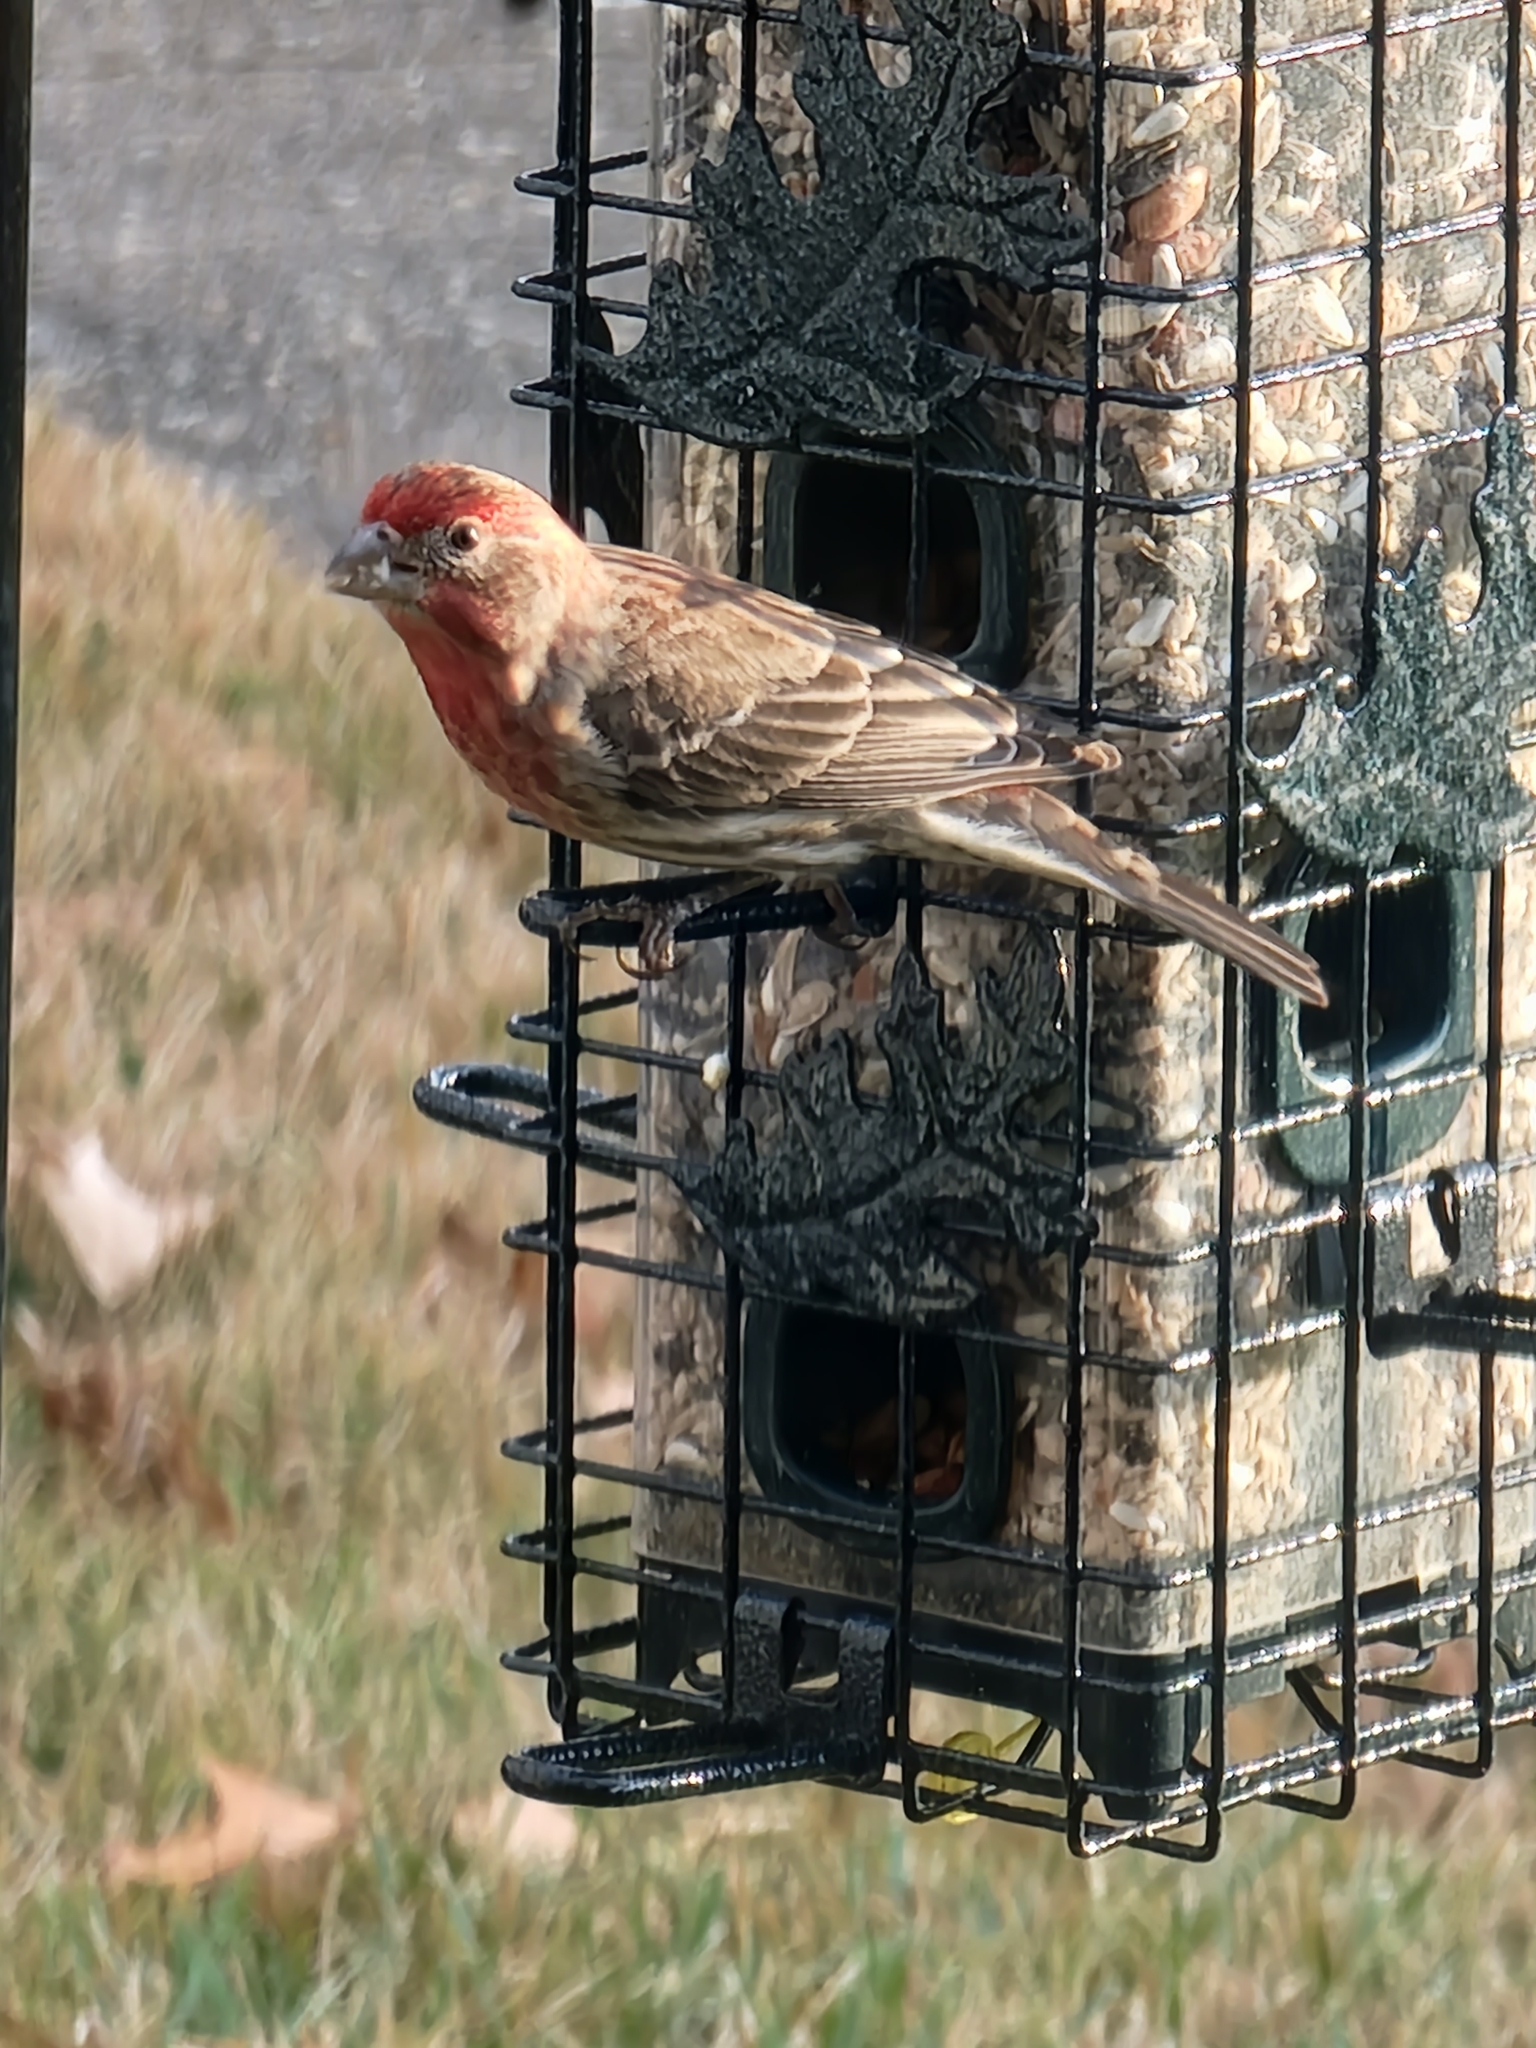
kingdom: Animalia
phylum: Chordata
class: Aves
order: Passeriformes
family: Fringillidae
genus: Haemorhous
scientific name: Haemorhous mexicanus
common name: House finch
